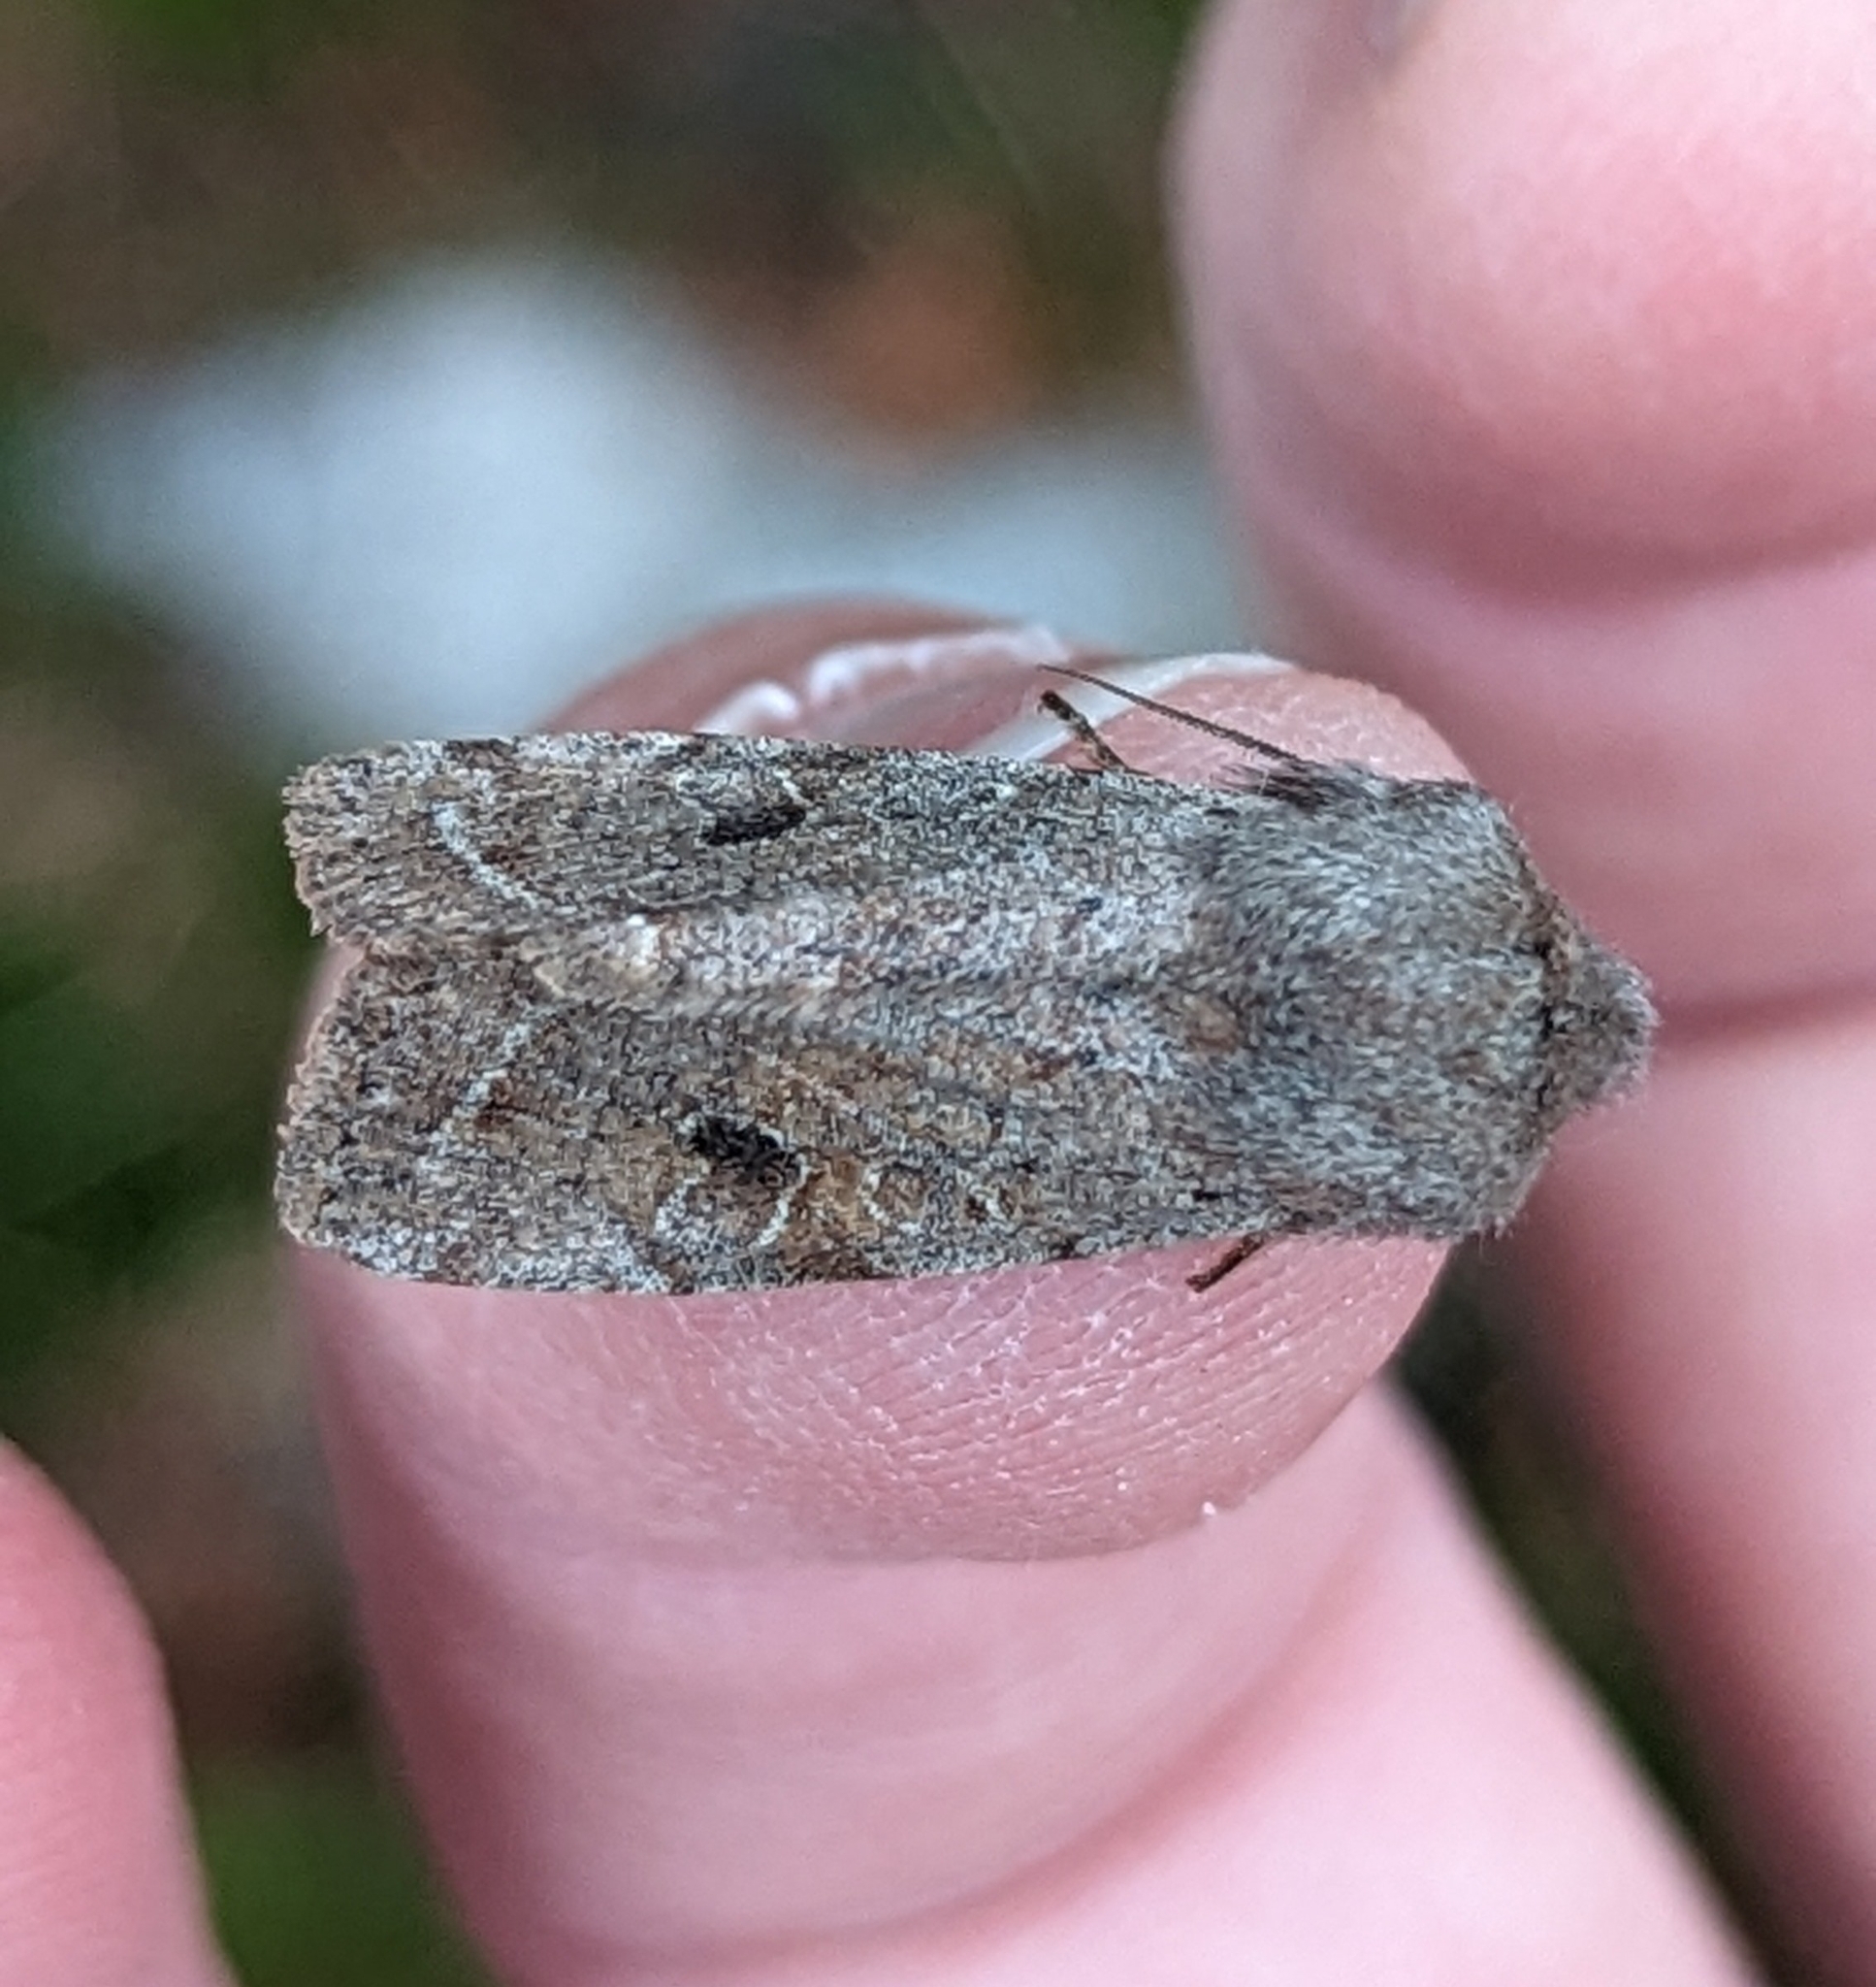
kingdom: Animalia
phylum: Arthropoda
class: Insecta
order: Lepidoptera
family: Noctuidae
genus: Orthosia
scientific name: Orthosia hibisci
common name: Green fruitworm
